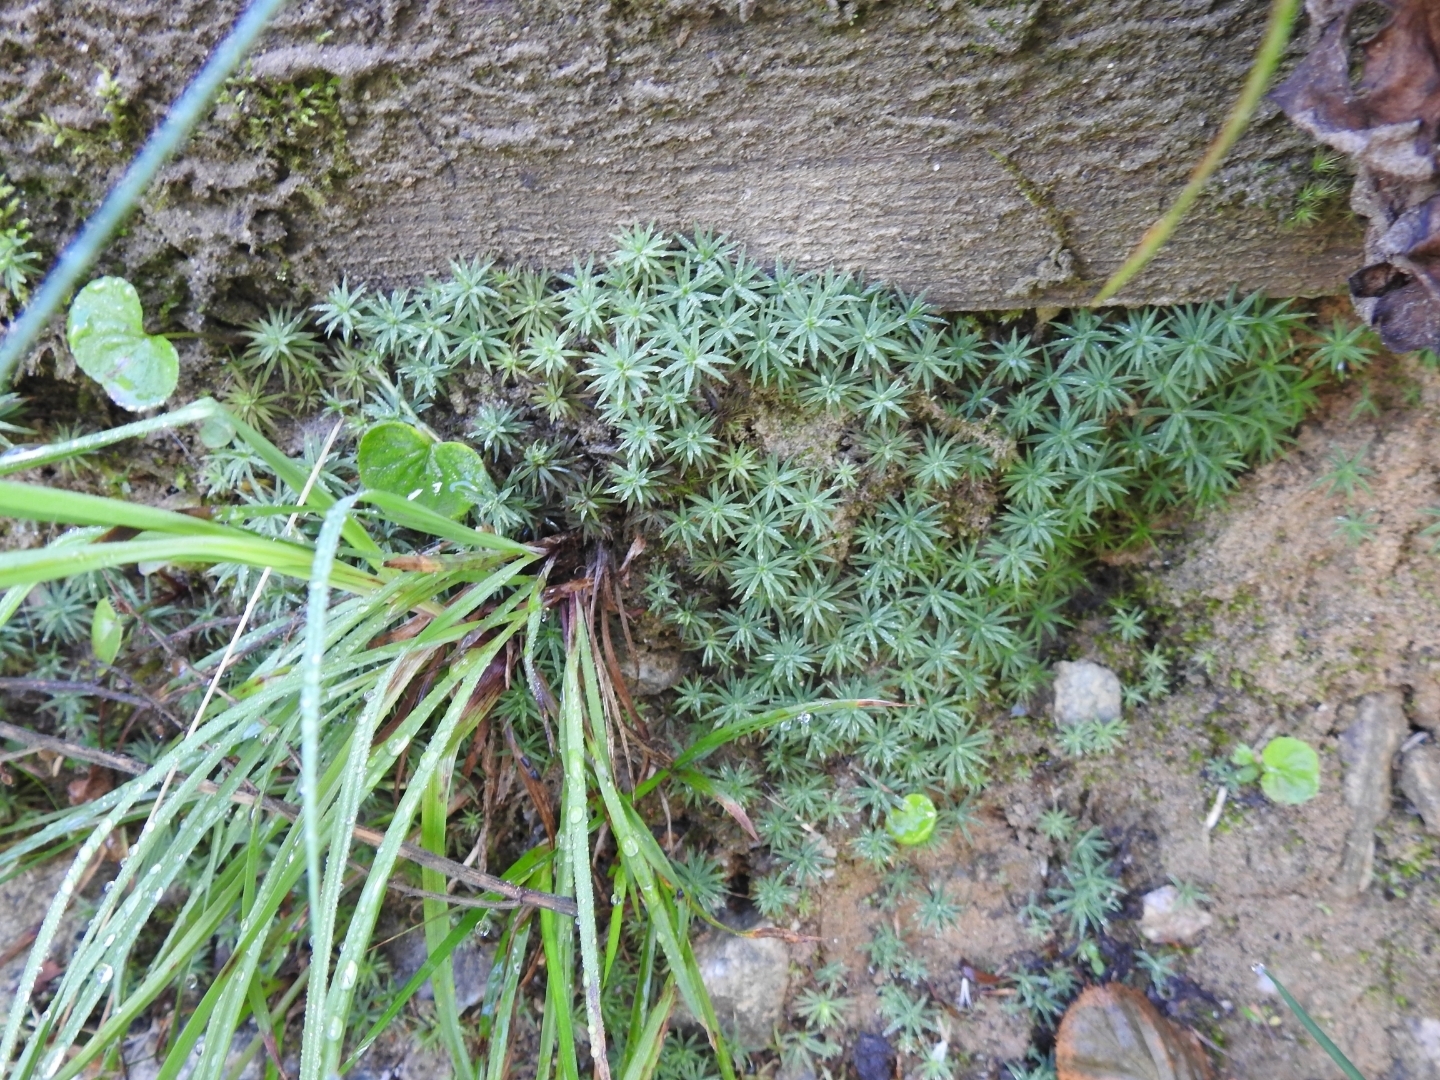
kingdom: Plantae
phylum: Bryophyta
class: Polytrichopsida
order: Polytrichales
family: Polytrichaceae
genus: Pogonatum
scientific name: Pogonatum urnigerum
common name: Urn hair moss
